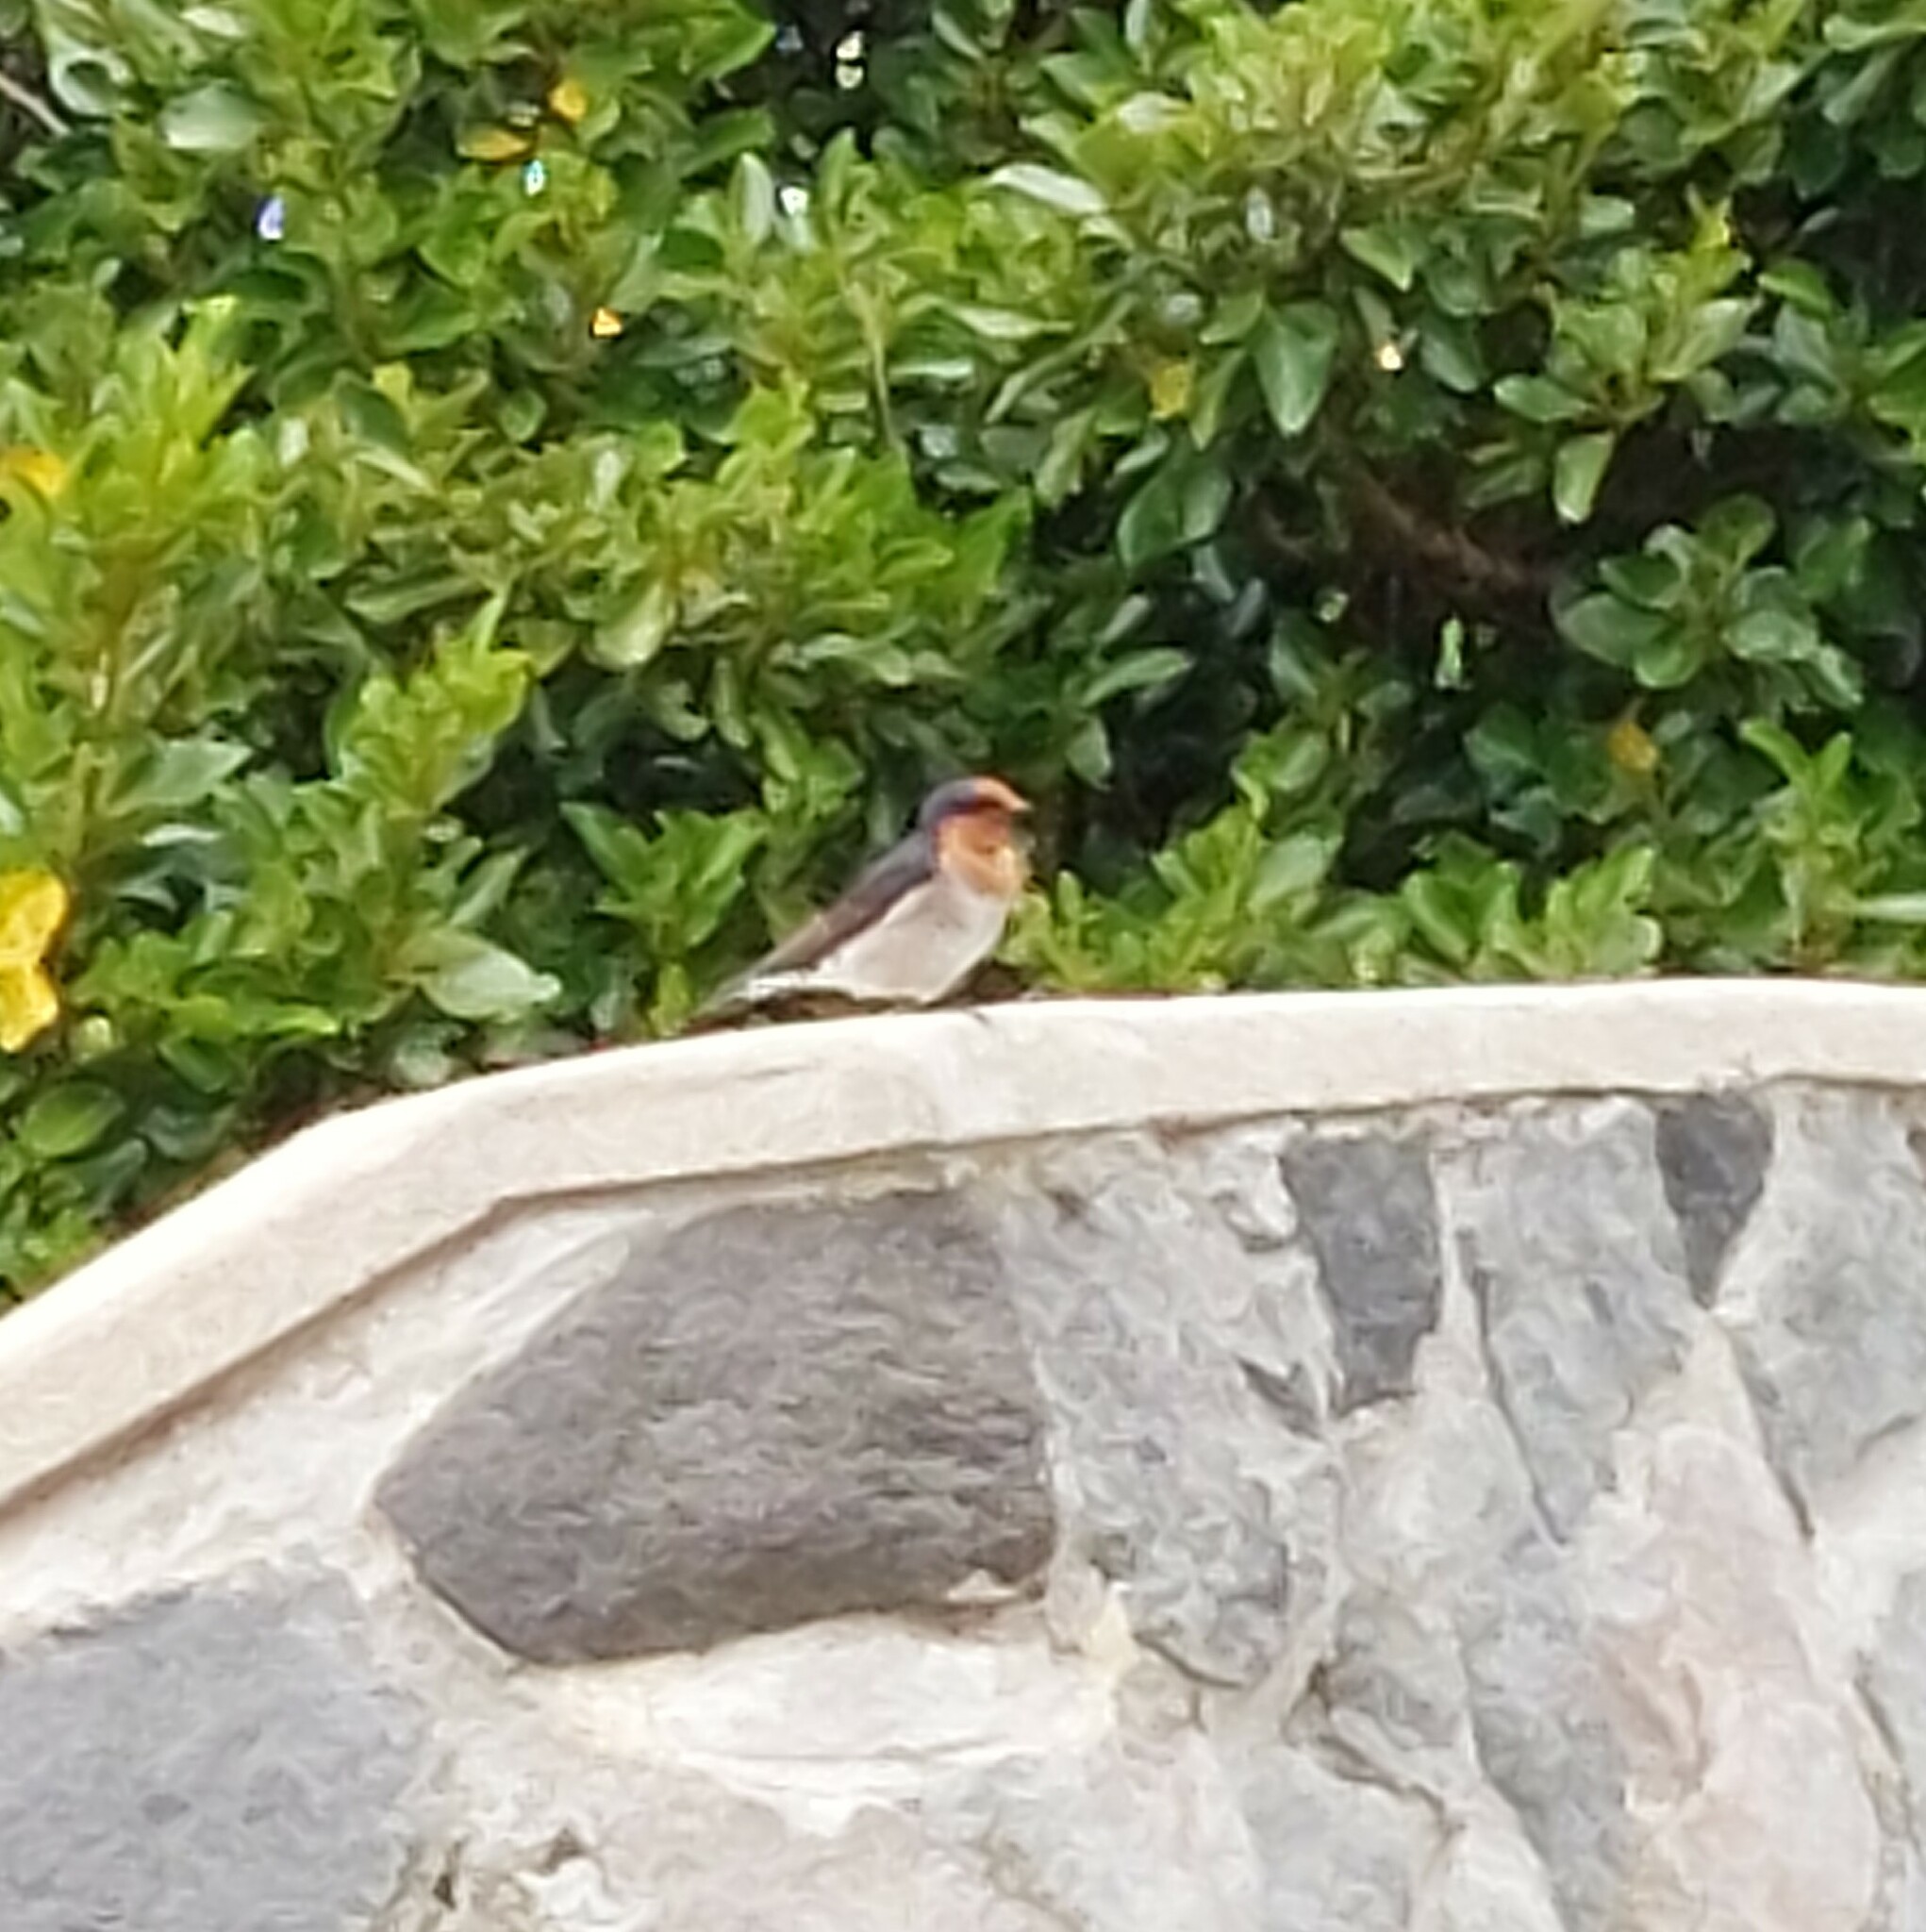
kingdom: Animalia
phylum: Chordata
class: Aves
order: Passeriformes
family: Hirundinidae
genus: Hirundo
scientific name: Hirundo neoxena
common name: Welcome swallow
